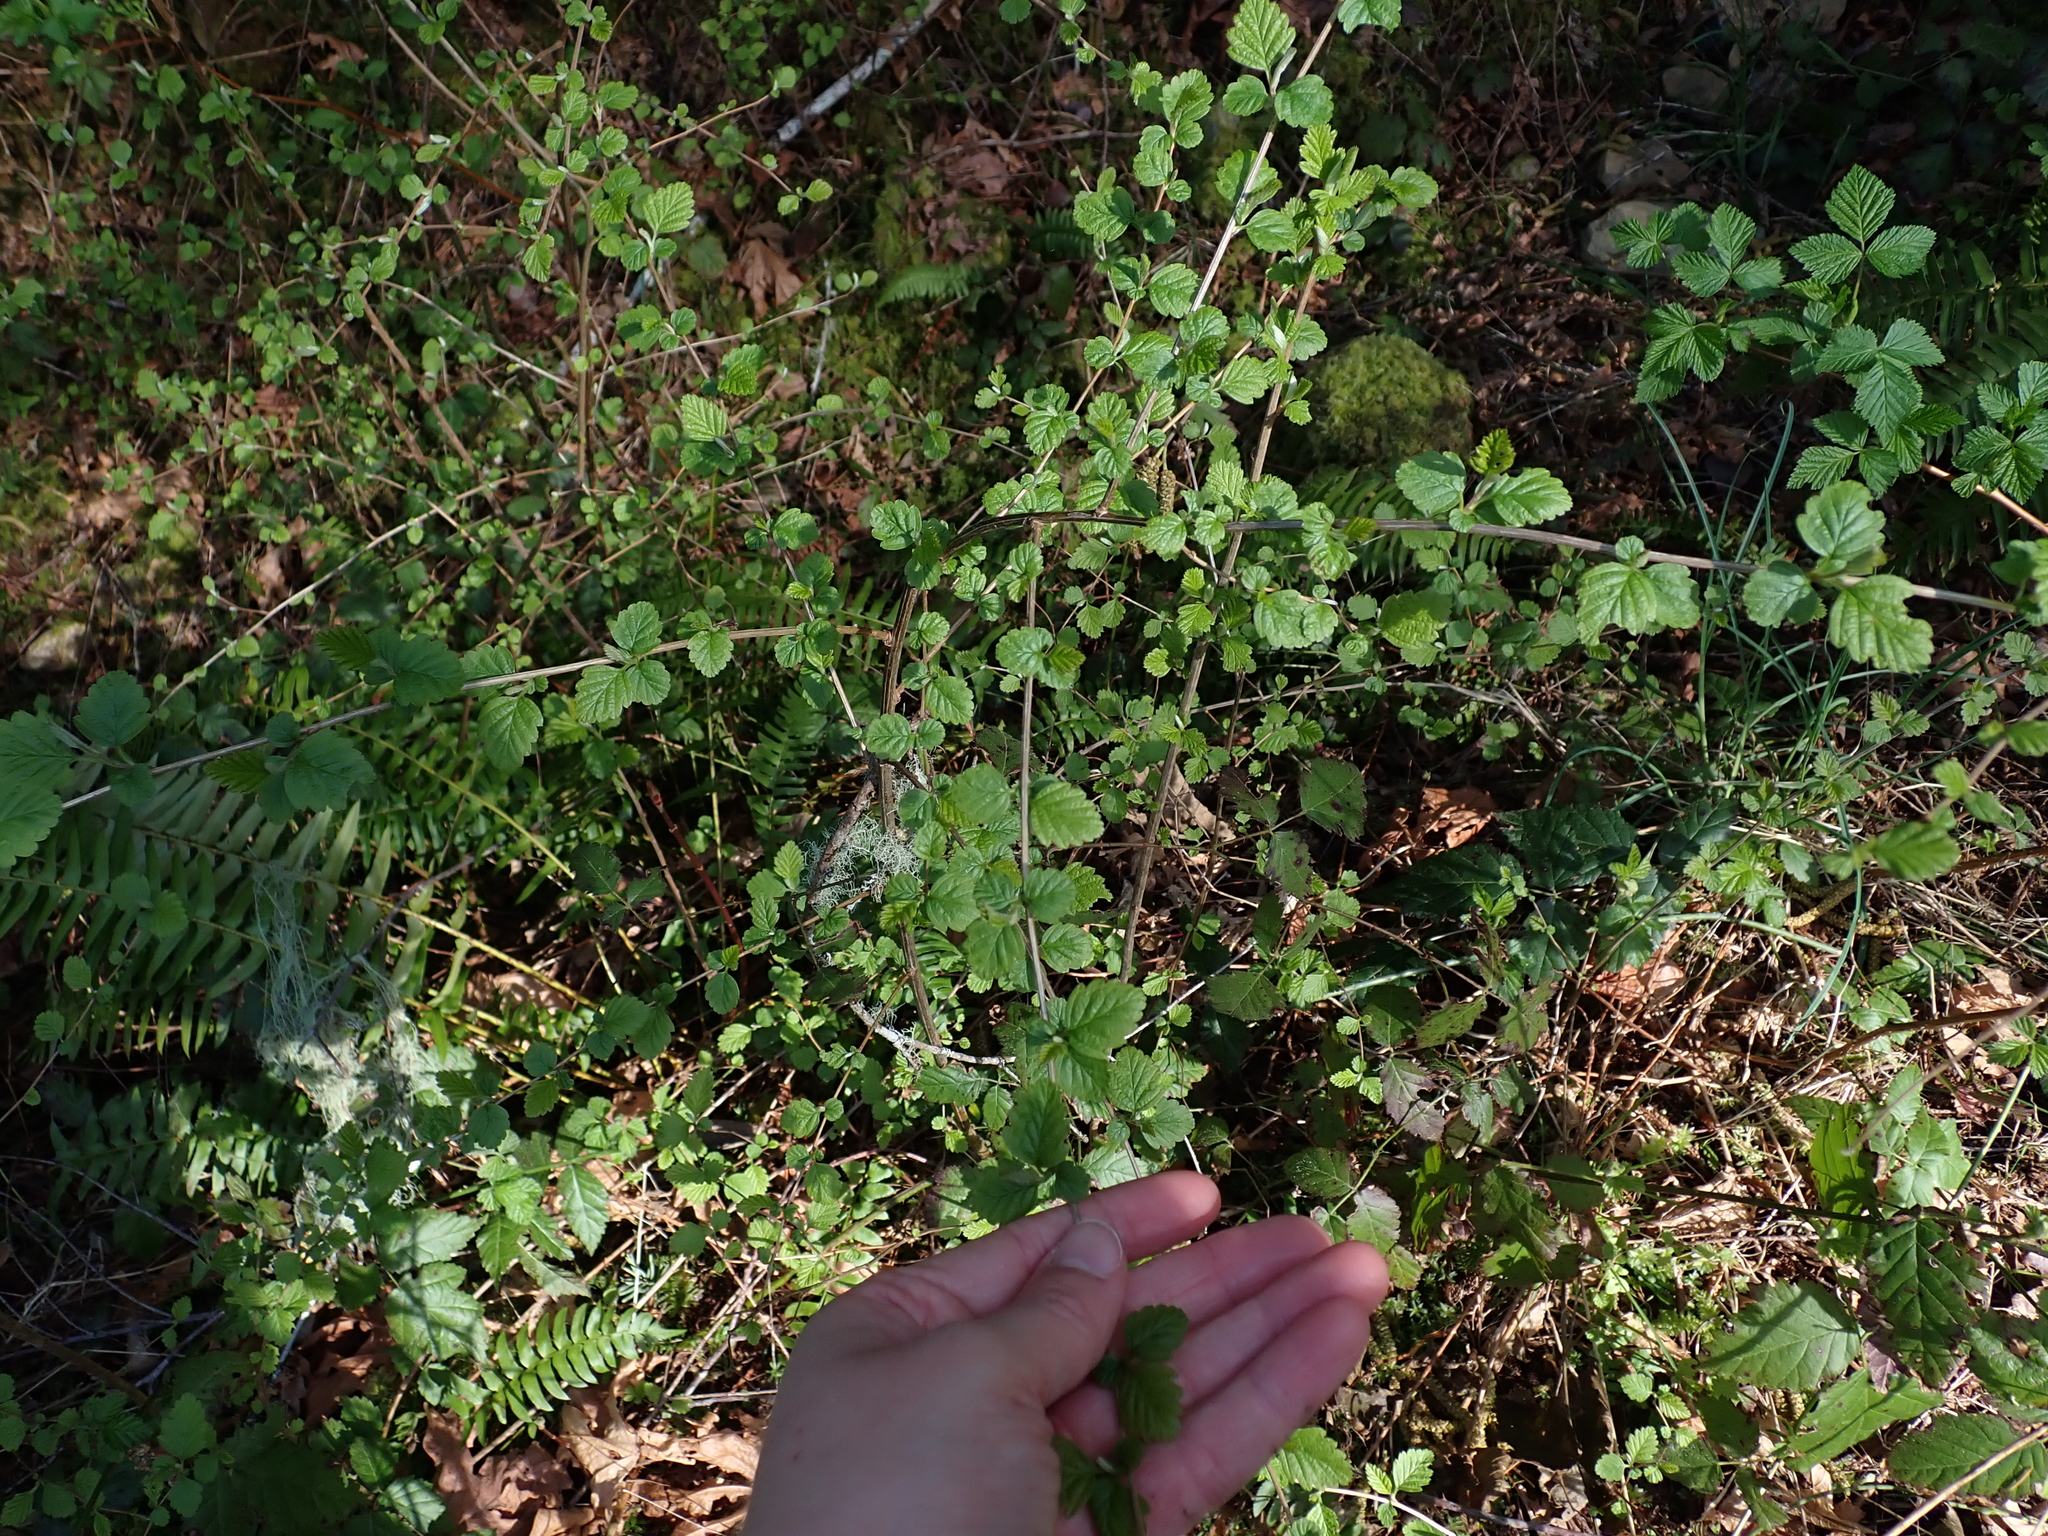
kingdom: Plantae
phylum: Tracheophyta
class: Magnoliopsida
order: Rosales
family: Rosaceae
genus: Holodiscus
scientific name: Holodiscus discolor
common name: Oceanspray
